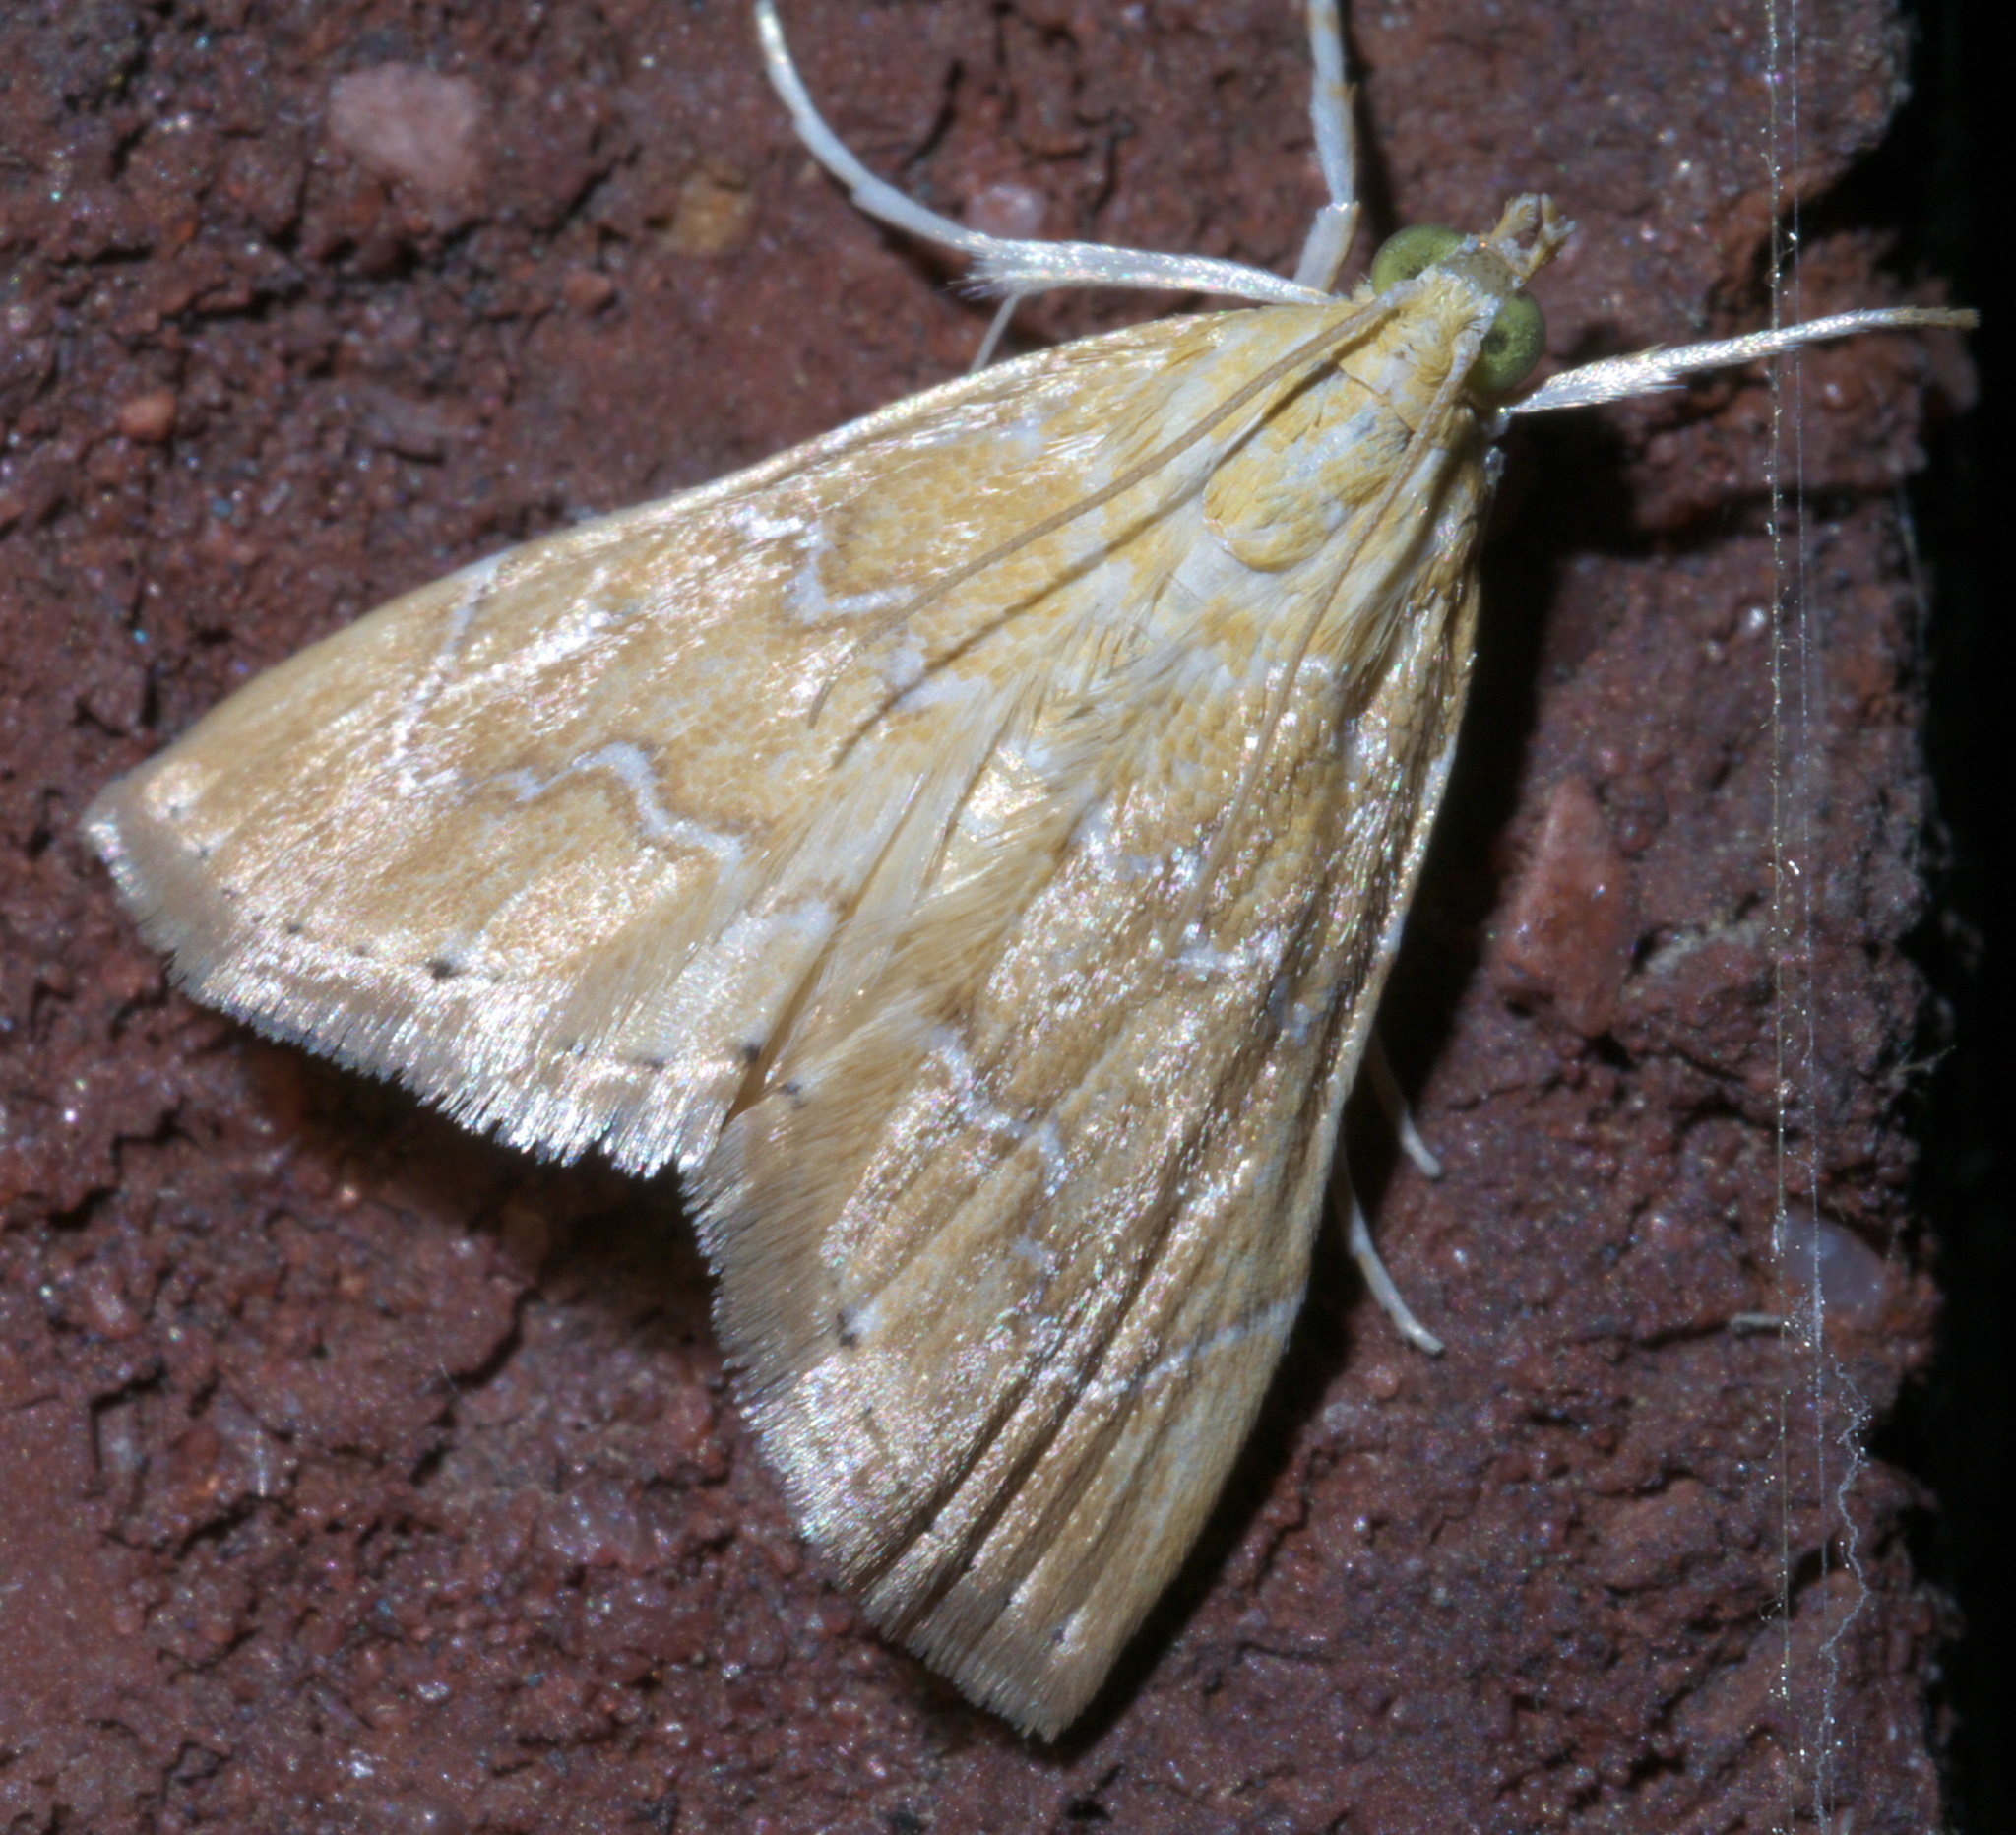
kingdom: Animalia
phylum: Arthropoda
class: Insecta
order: Lepidoptera
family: Crambidae
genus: Glaphyria
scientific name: Glaphyria sesquistrialis
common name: White-roped glaphyria
